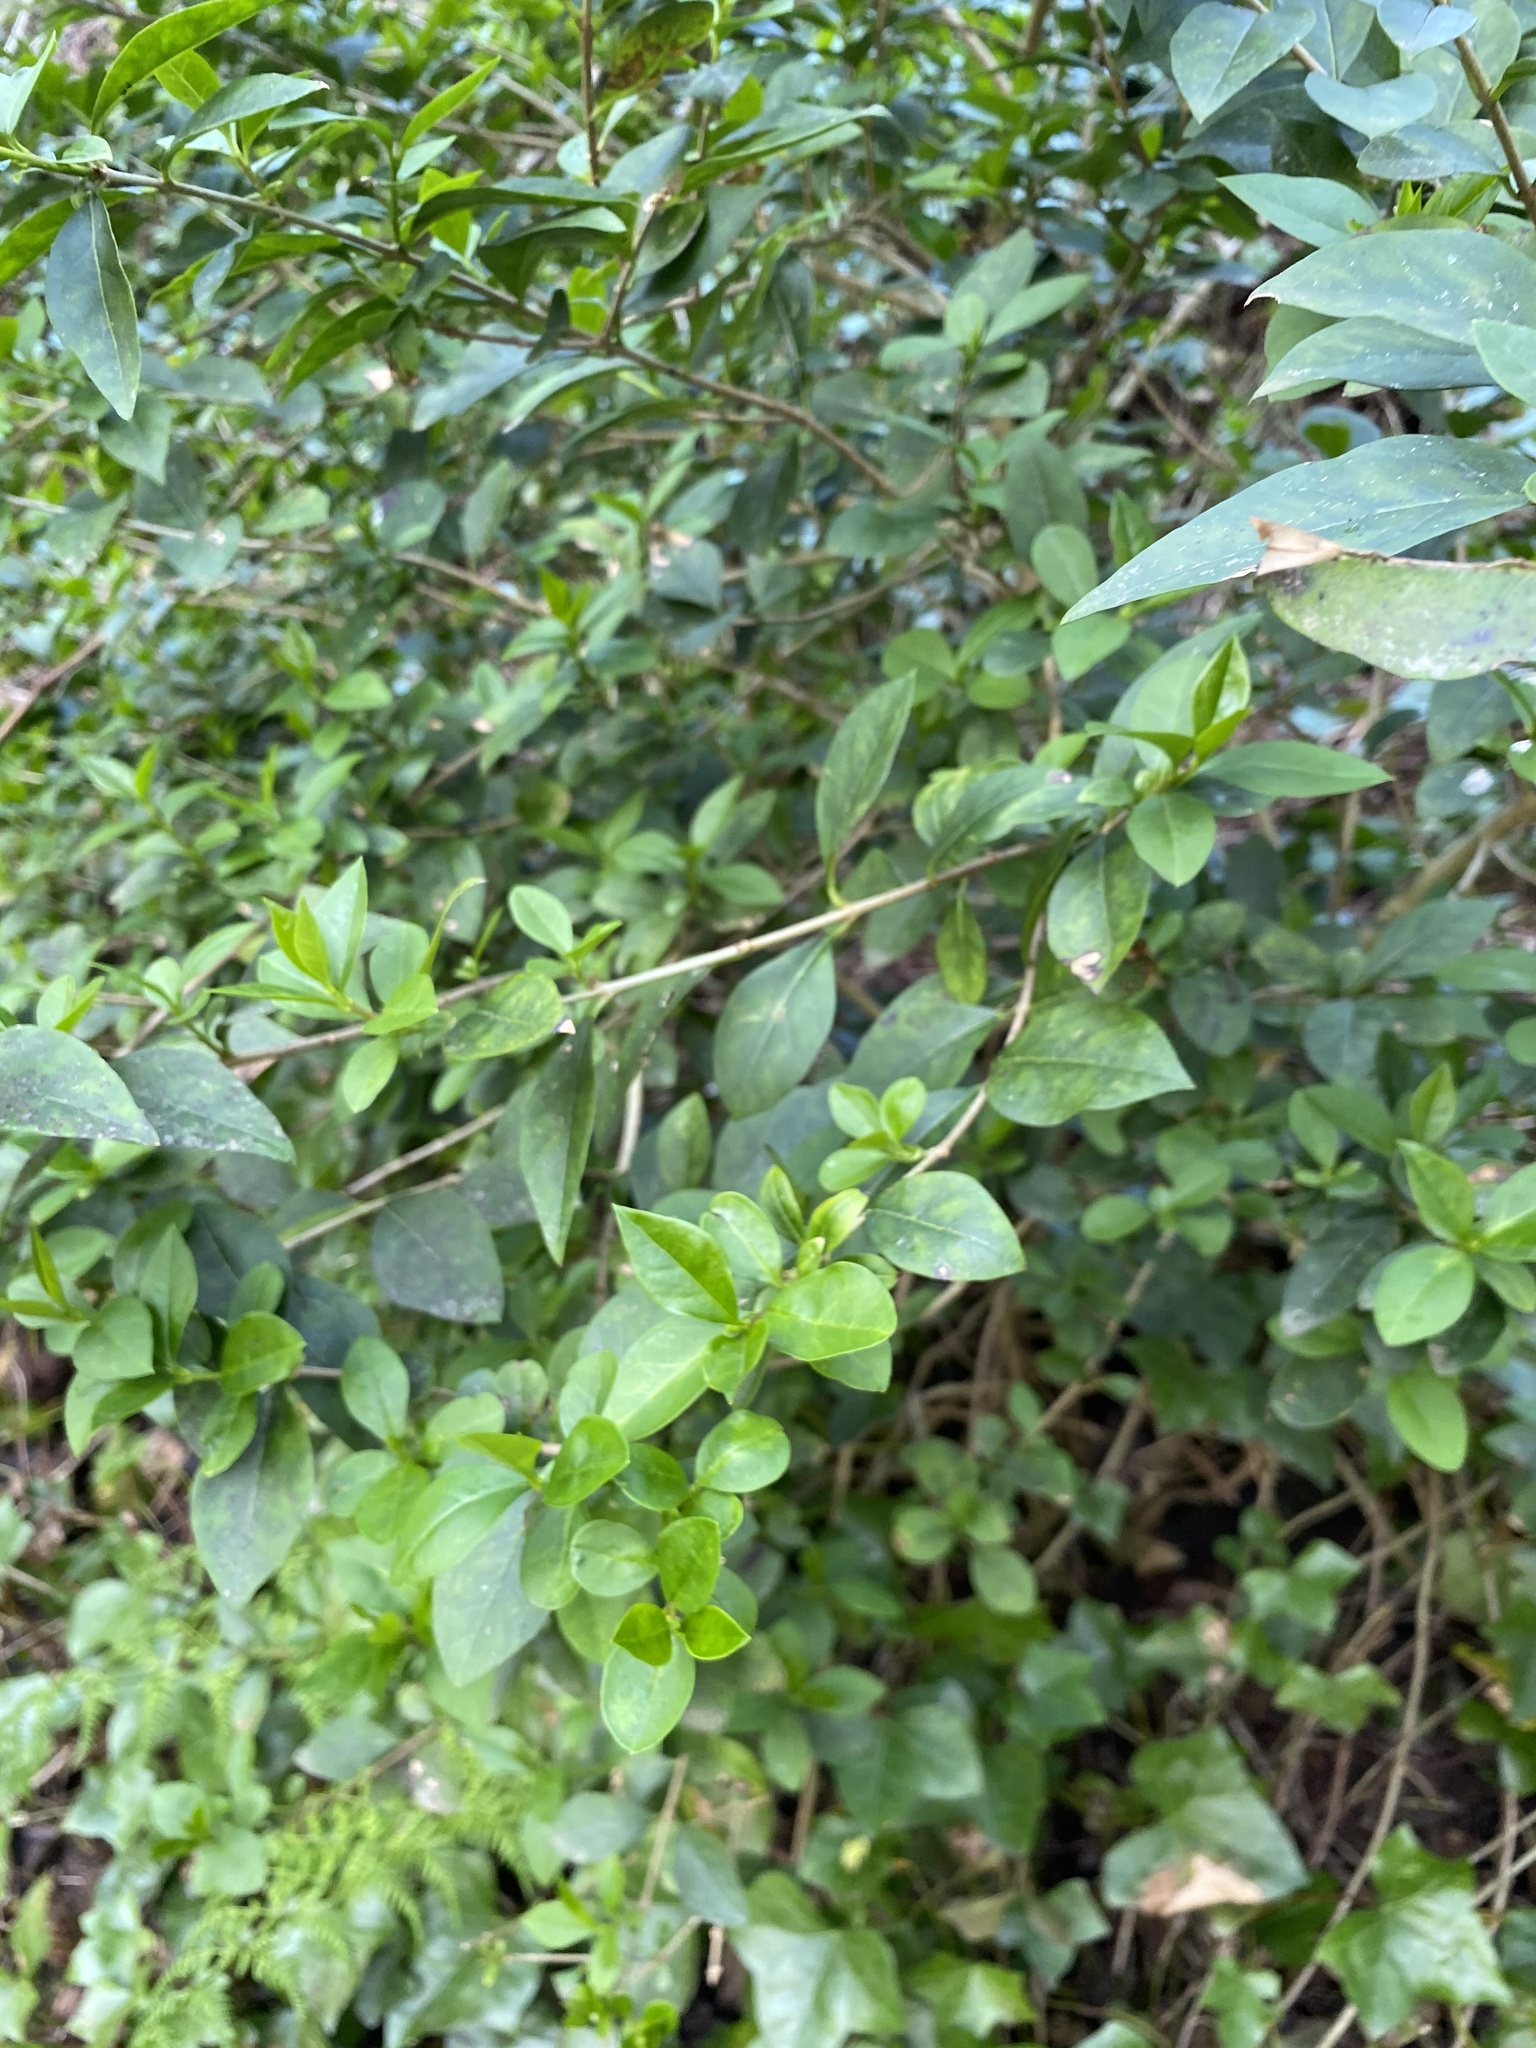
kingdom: Plantae
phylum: Tracheophyta
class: Magnoliopsida
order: Lamiales
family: Oleaceae
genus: Ligustrum
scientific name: Ligustrum ovalifolium
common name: California privet
